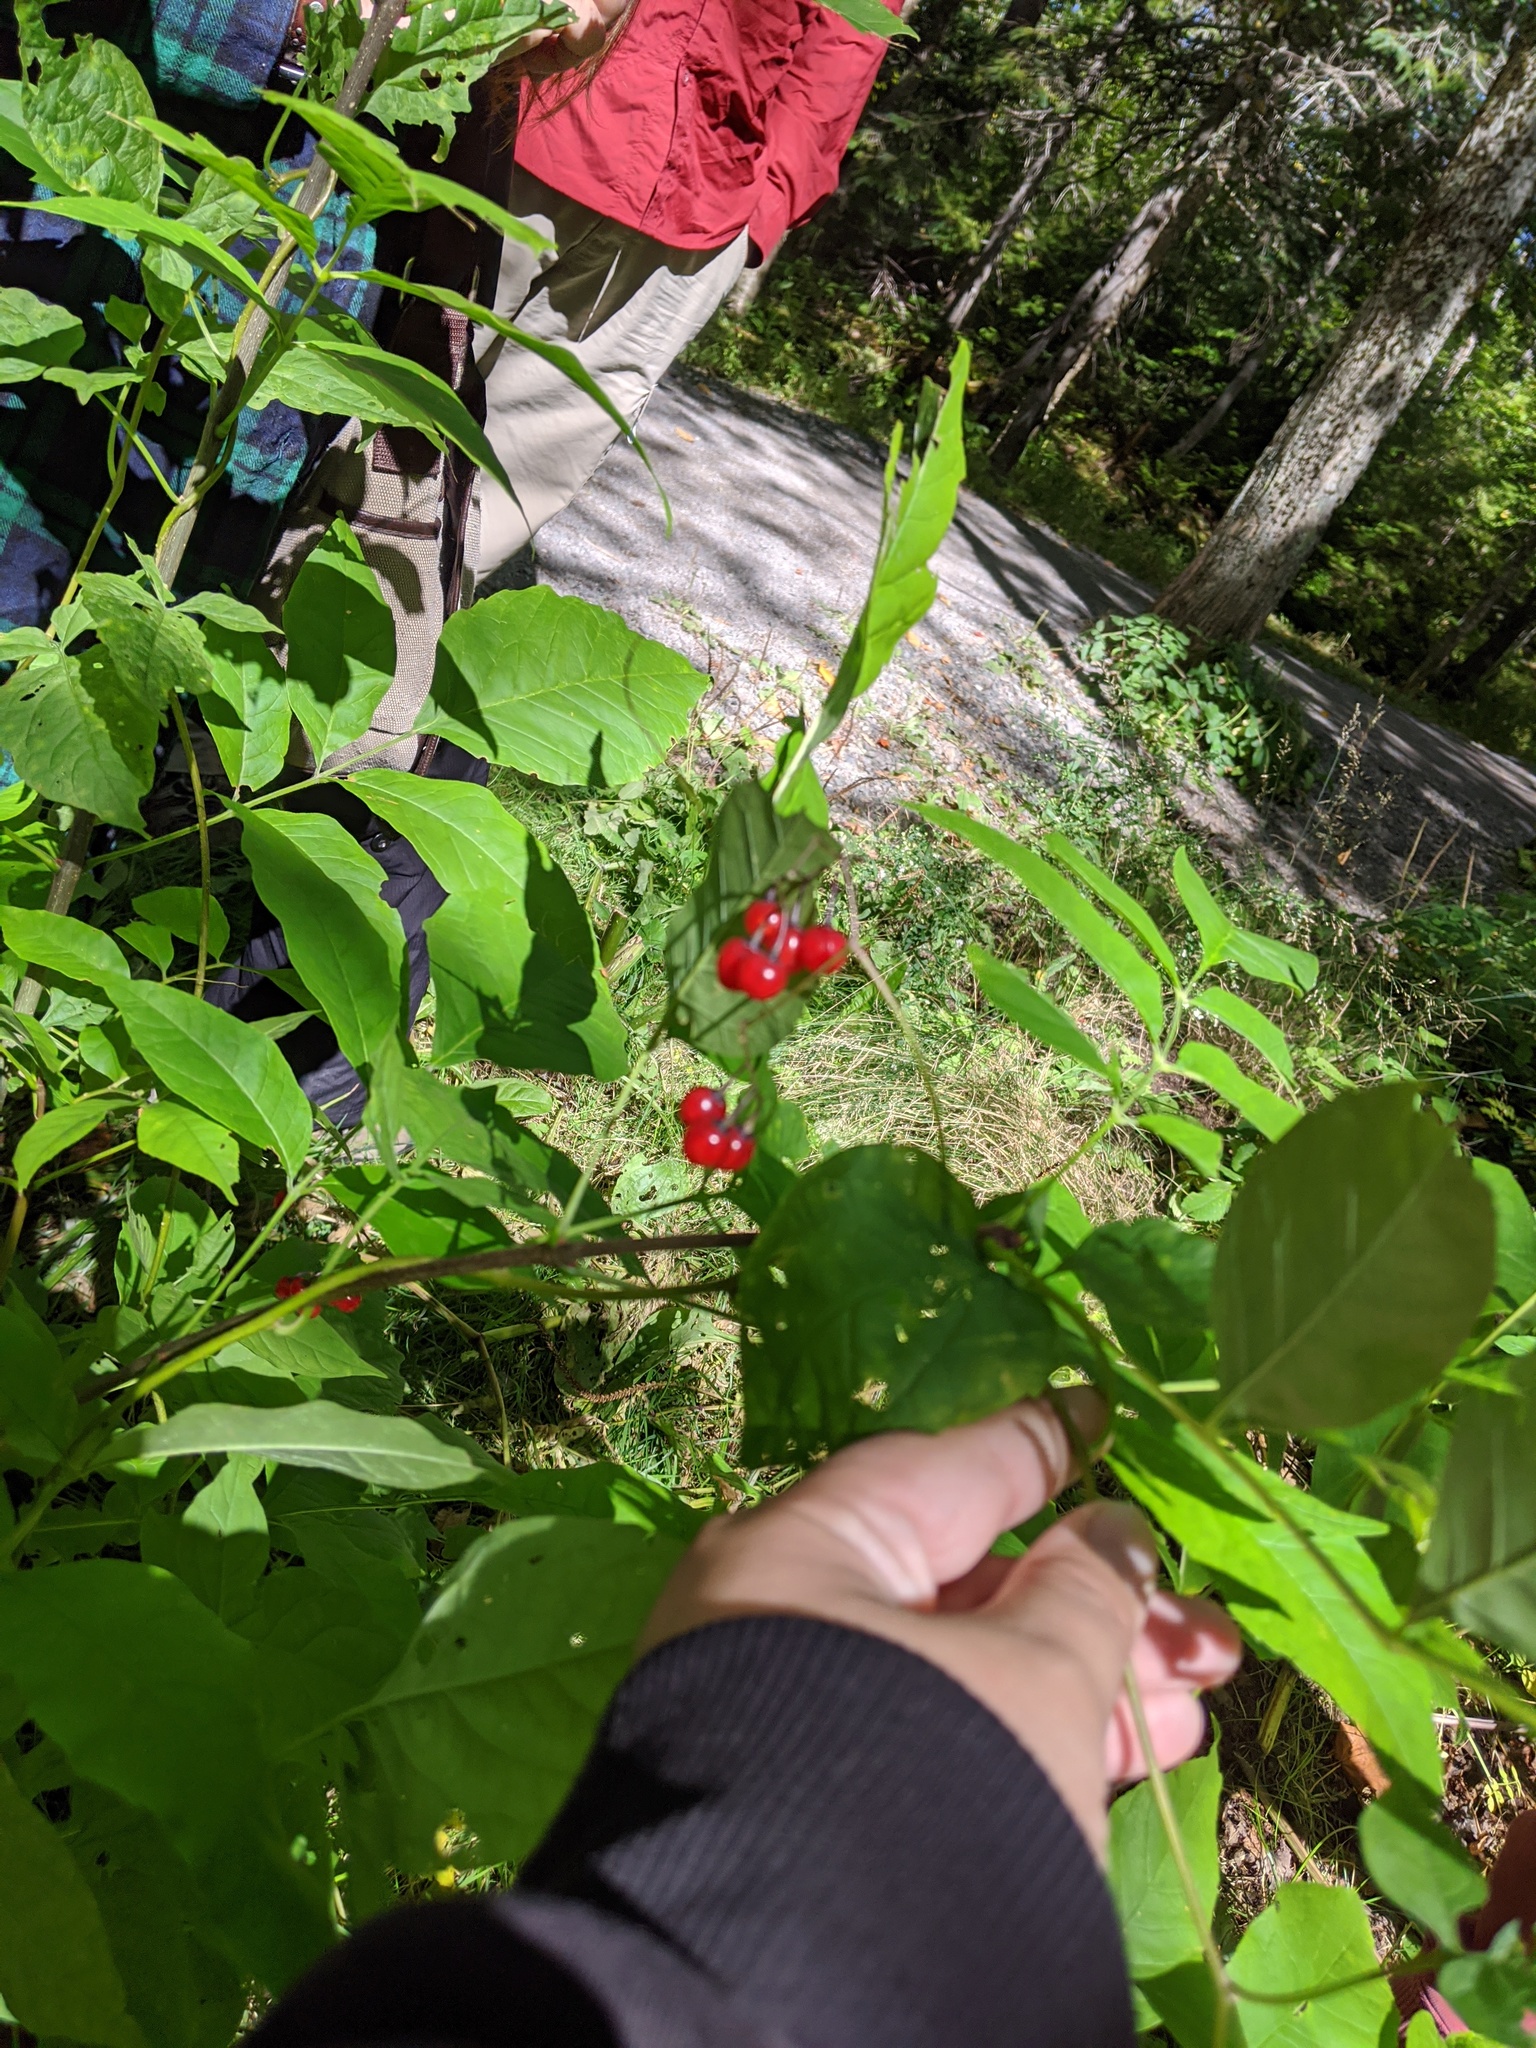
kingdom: Plantae
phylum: Tracheophyta
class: Magnoliopsida
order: Solanales
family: Solanaceae
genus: Solanum
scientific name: Solanum dulcamara
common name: Climbing nightshade
